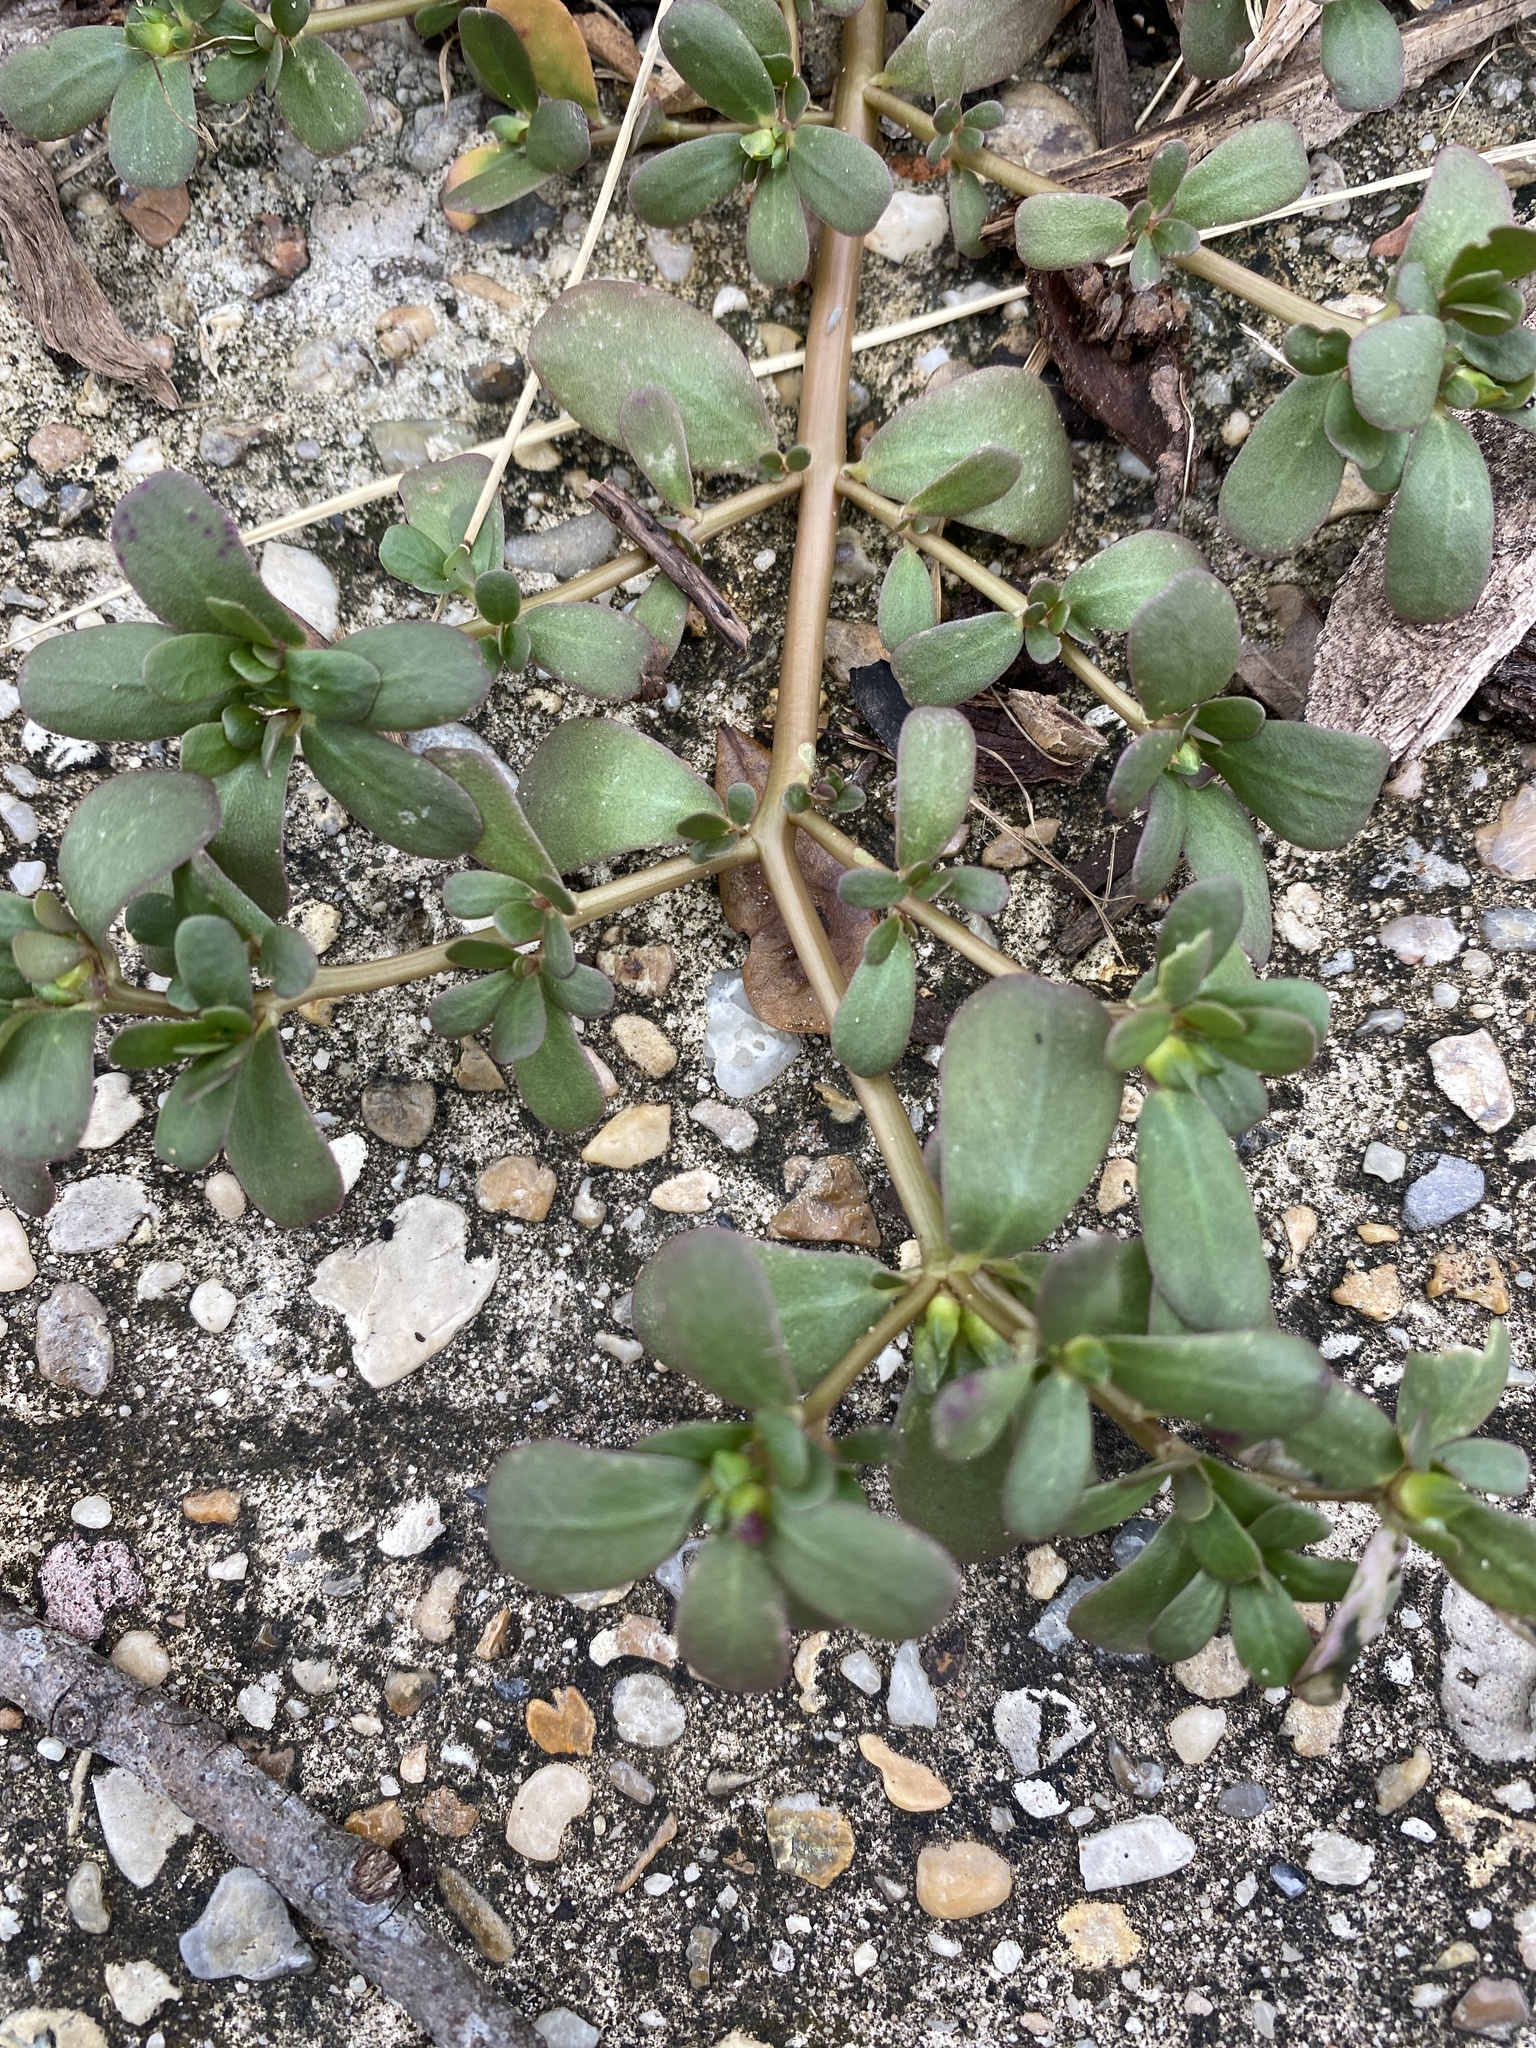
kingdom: Plantae
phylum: Tracheophyta
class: Magnoliopsida
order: Caryophyllales
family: Portulacaceae
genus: Portulaca
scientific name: Portulaca oleracea
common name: Common purslane
